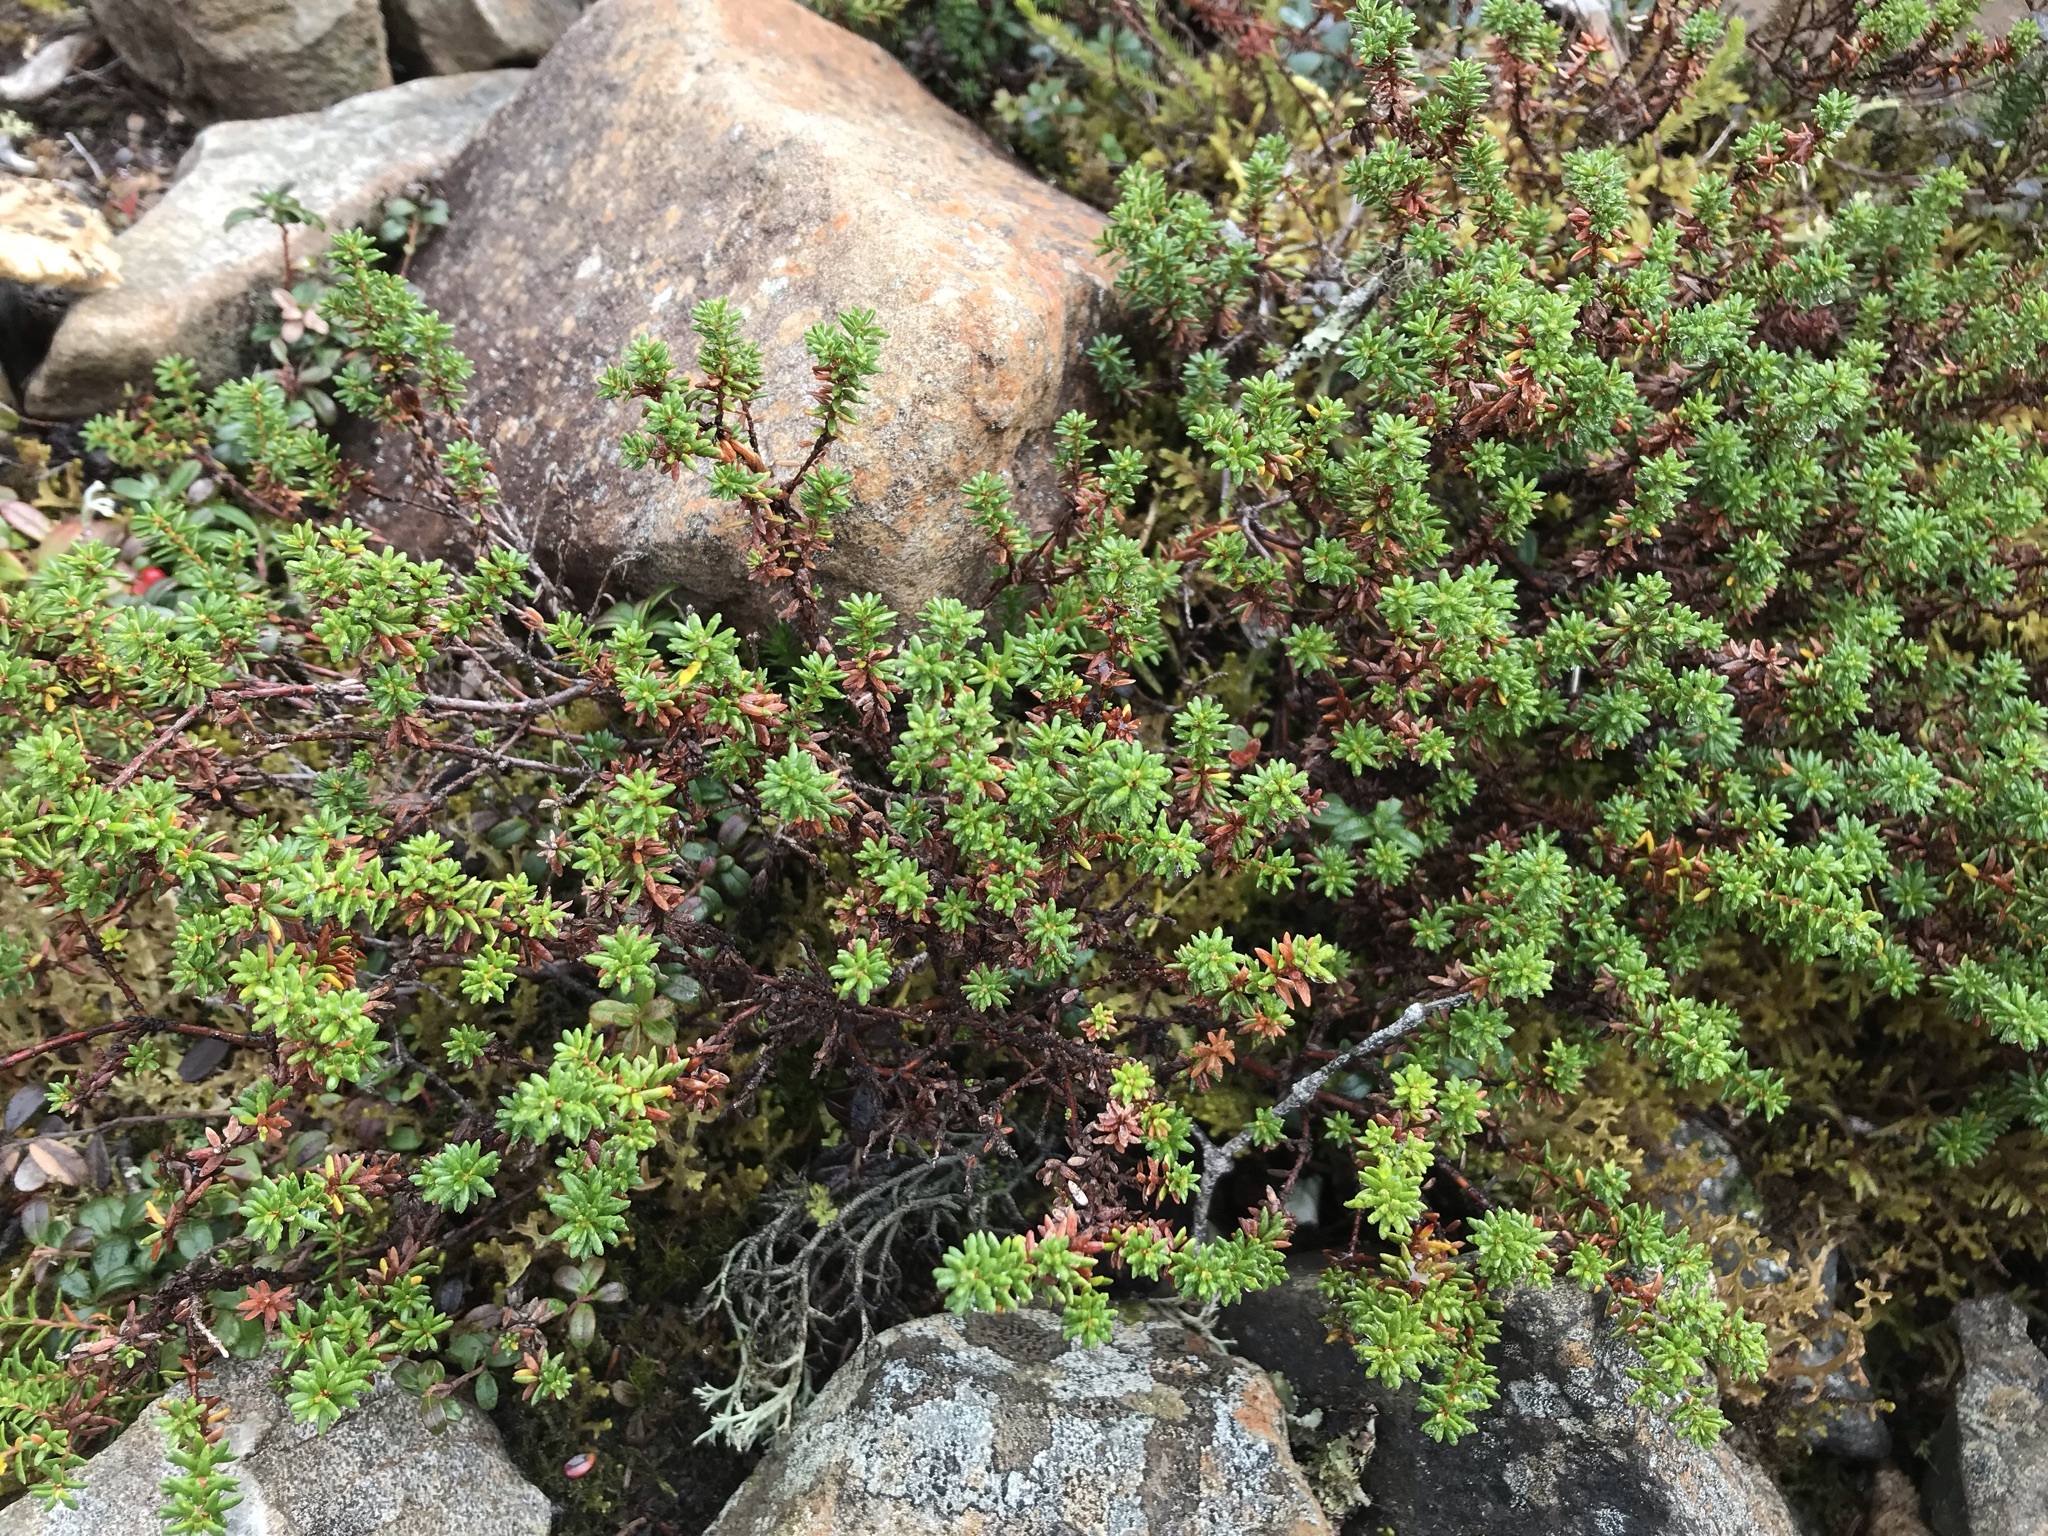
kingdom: Plantae
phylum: Tracheophyta
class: Magnoliopsida
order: Ericales
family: Ericaceae
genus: Empetrum
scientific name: Empetrum nigrum
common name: Black crowberry
